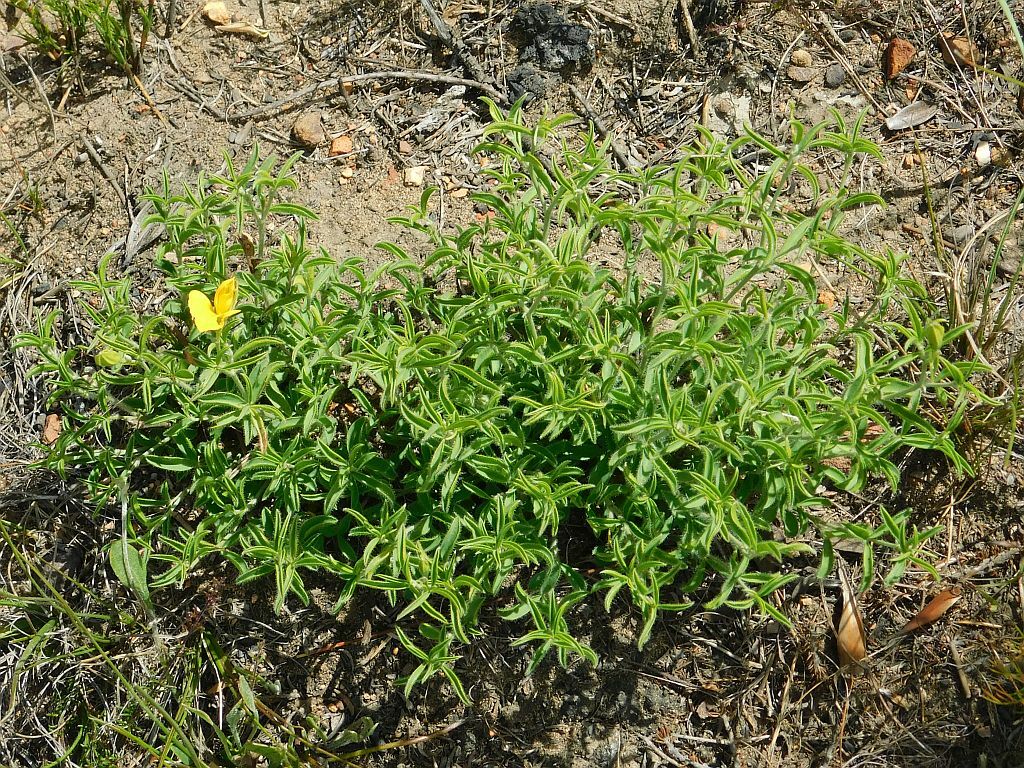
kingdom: Plantae
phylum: Tracheophyta
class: Magnoliopsida
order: Fabales
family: Fabaceae
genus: Argyrolobium
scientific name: Argyrolobium pachyphyllum
